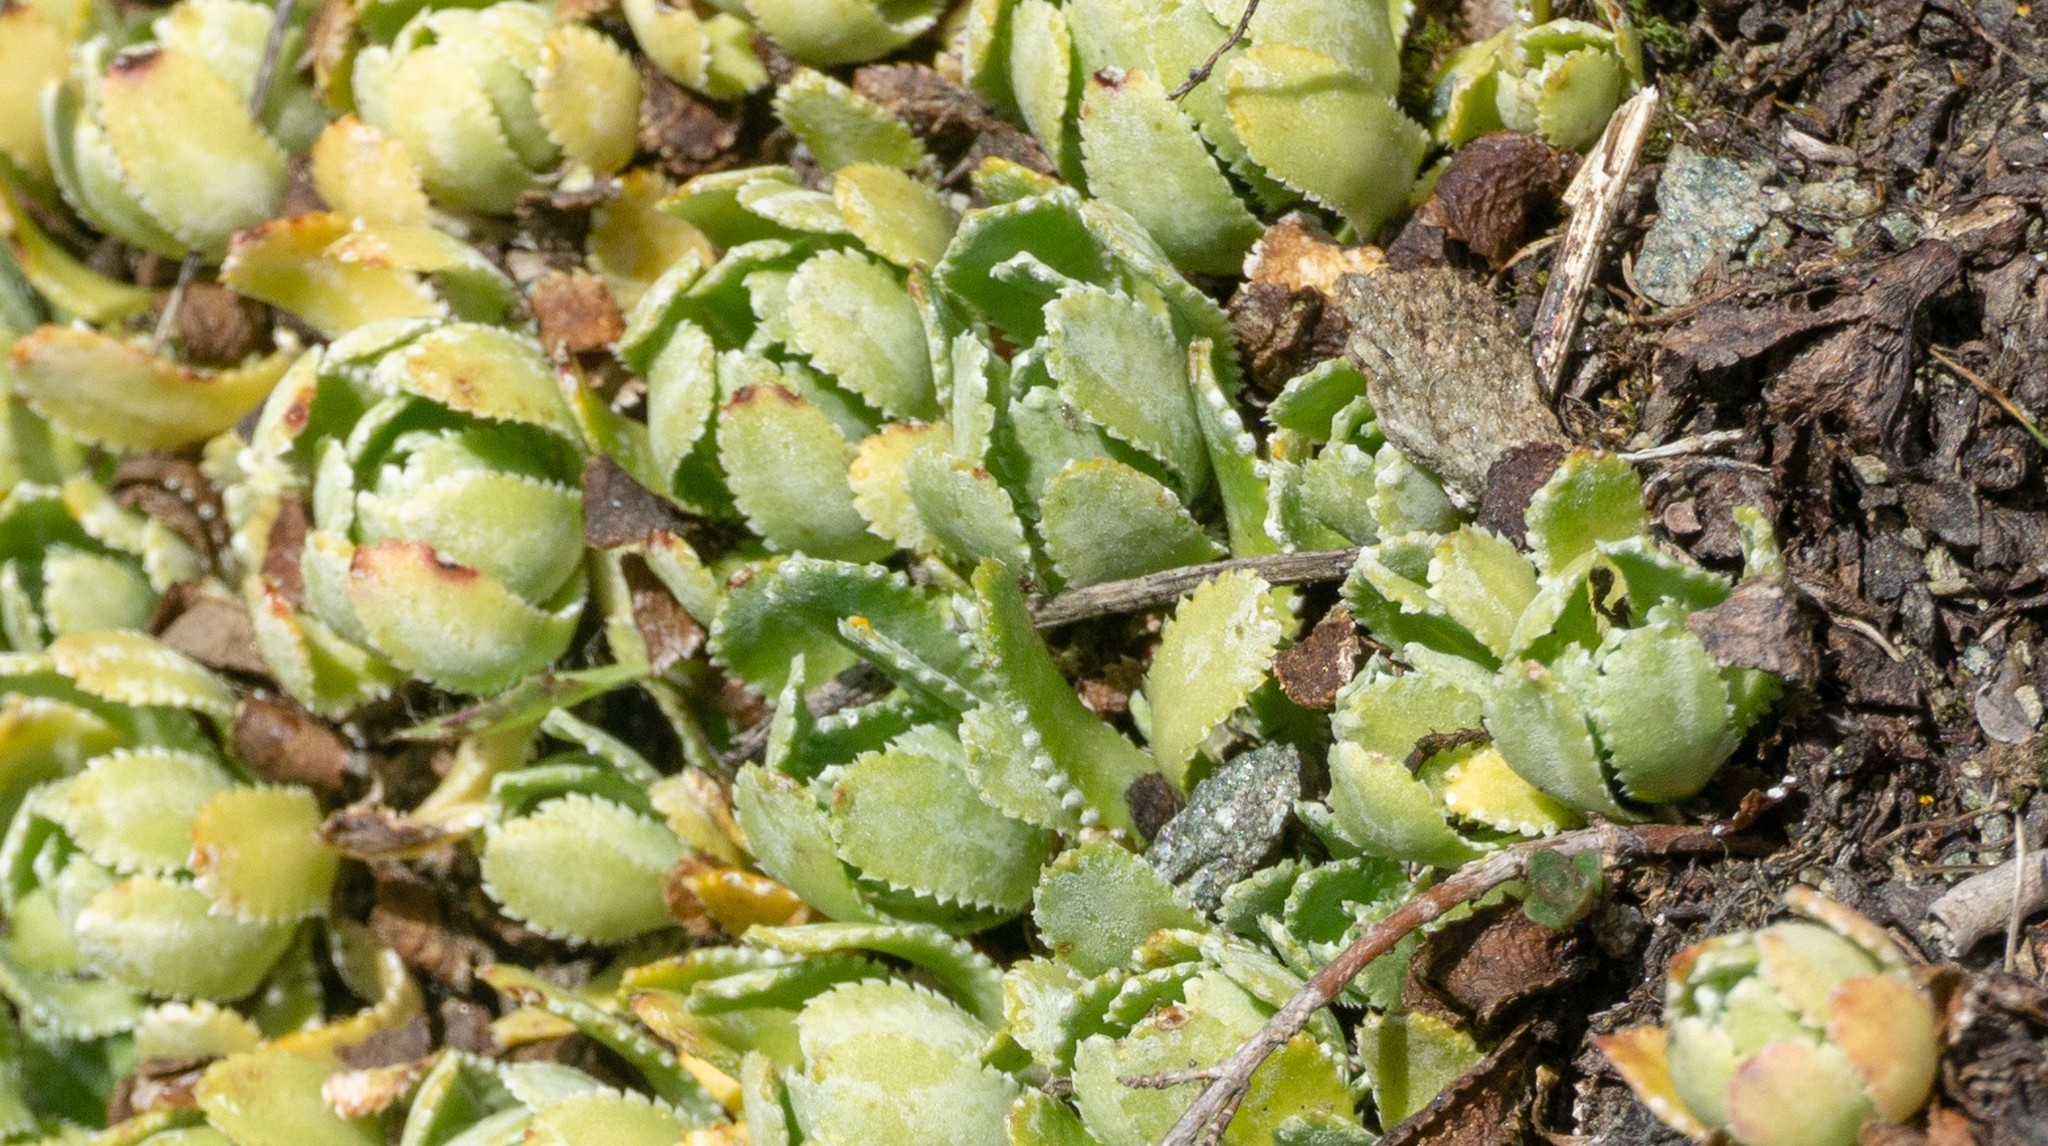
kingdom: Plantae
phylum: Tracheophyta
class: Magnoliopsida
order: Saxifragales
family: Saxifragaceae
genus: Saxifraga
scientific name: Saxifraga paniculata
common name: Livelong saxifrage
